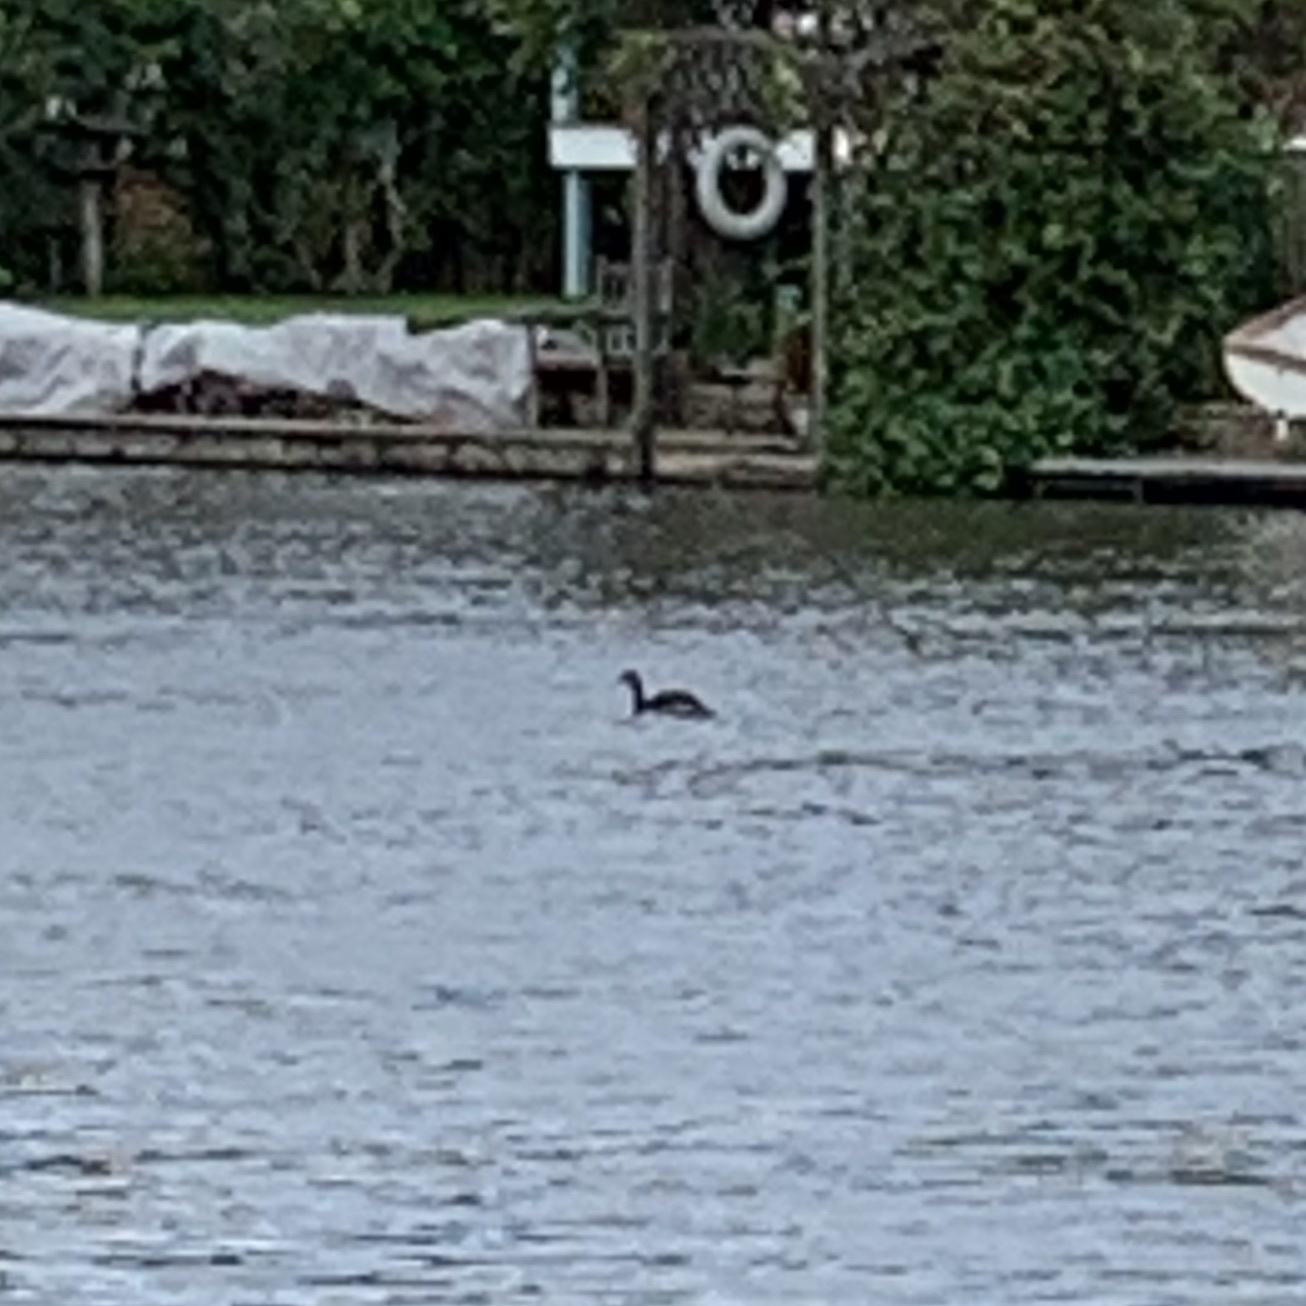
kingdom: Animalia
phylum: Chordata
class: Aves
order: Podicipediformes
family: Podicipedidae
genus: Podiceps
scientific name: Podiceps cristatus
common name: Great crested grebe
